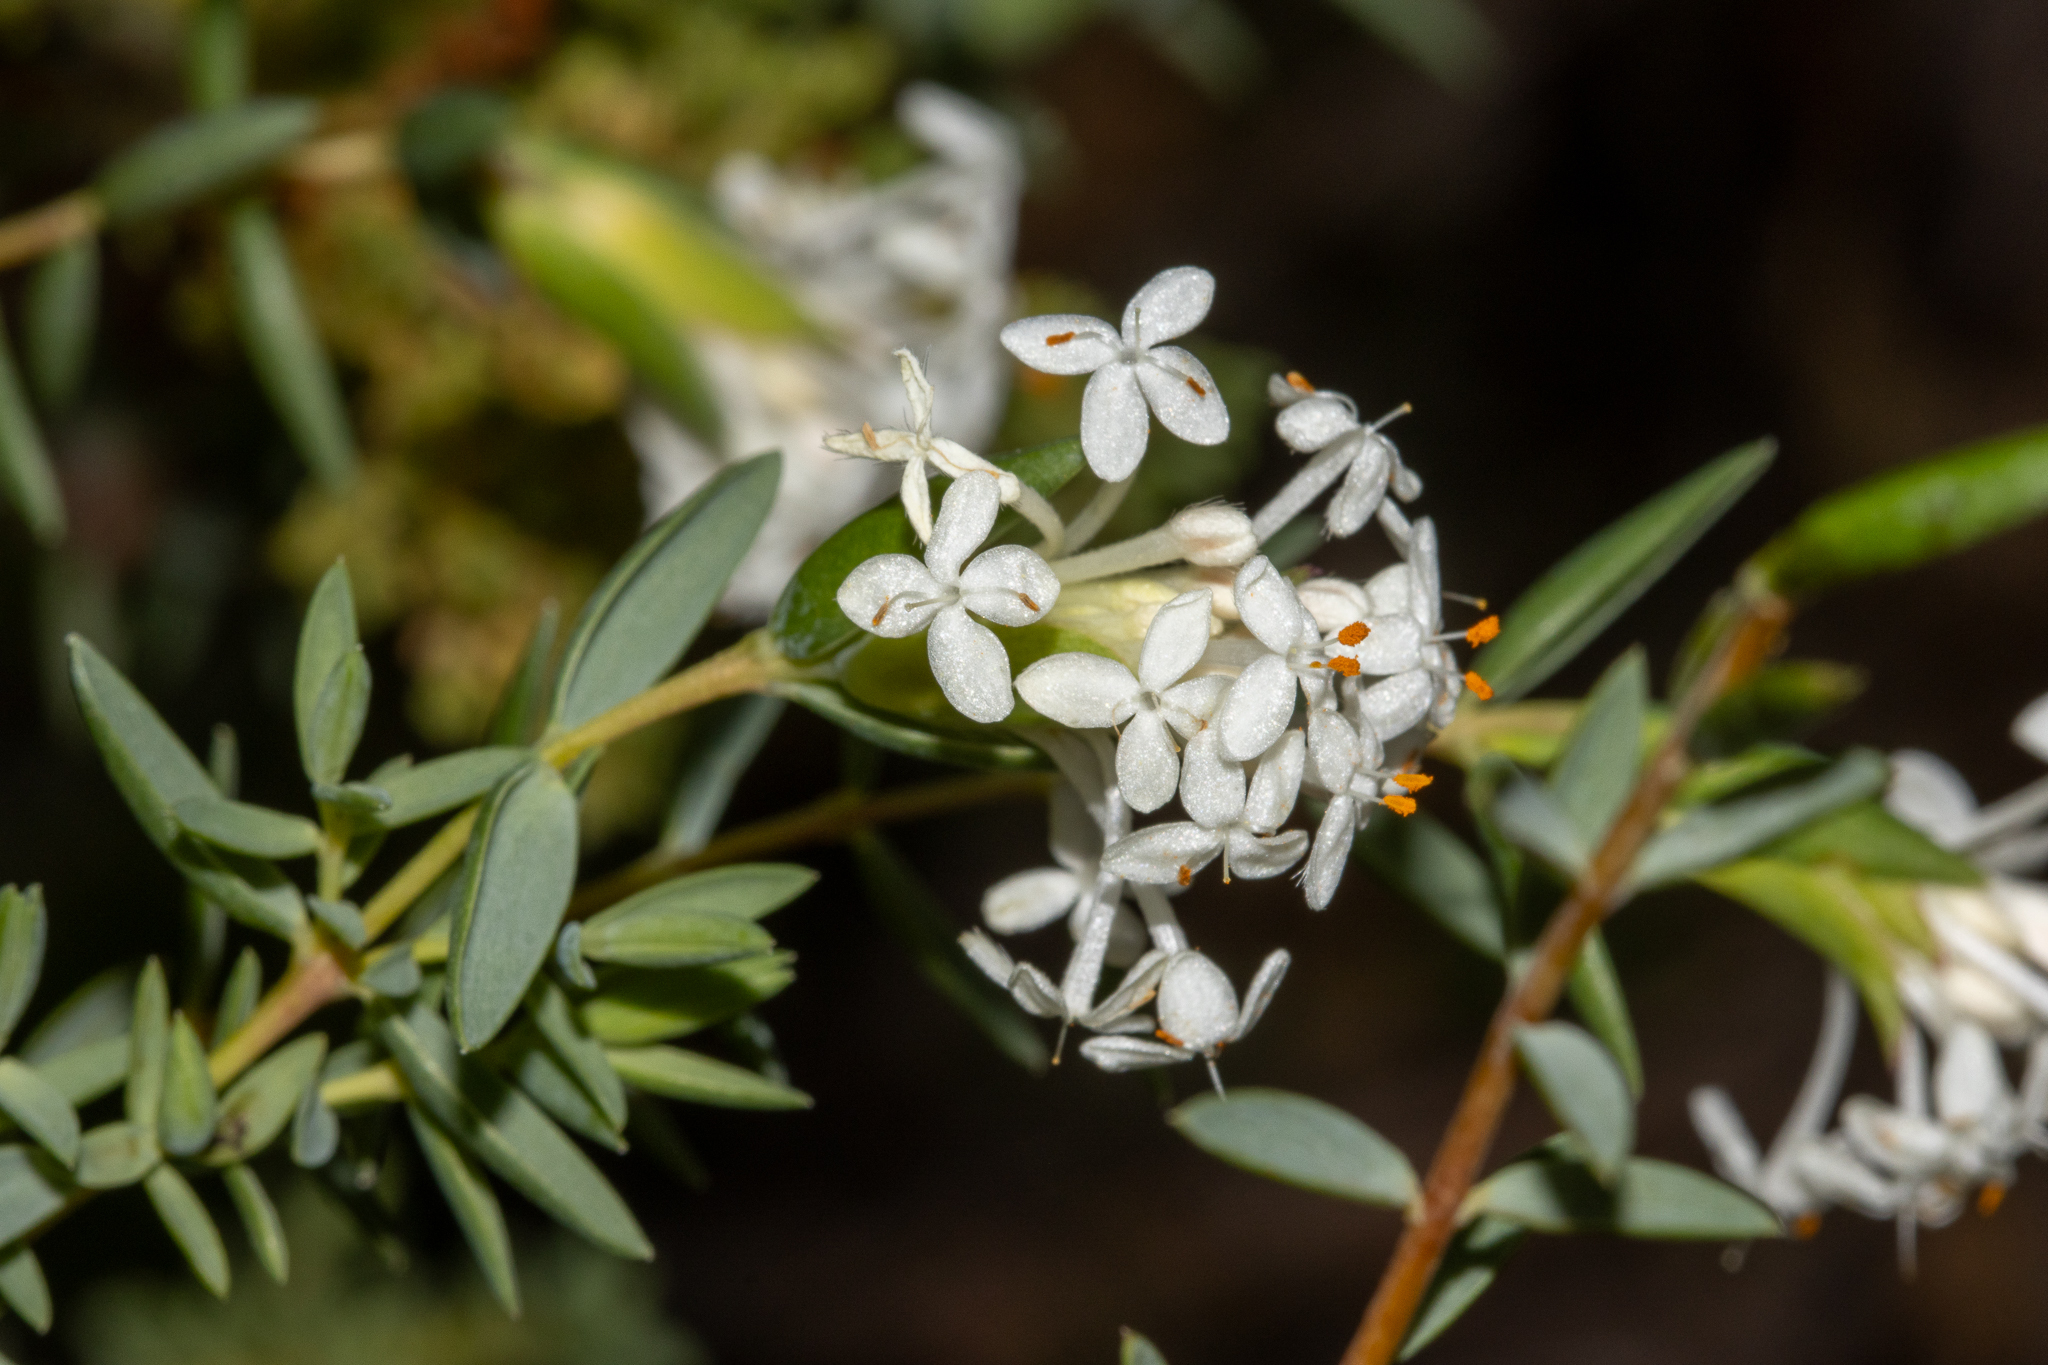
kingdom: Plantae
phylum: Tracheophyta
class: Magnoliopsida
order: Malvales
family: Thymelaeaceae
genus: Pimelea
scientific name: Pimelea glauca
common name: Smooth riceflower
